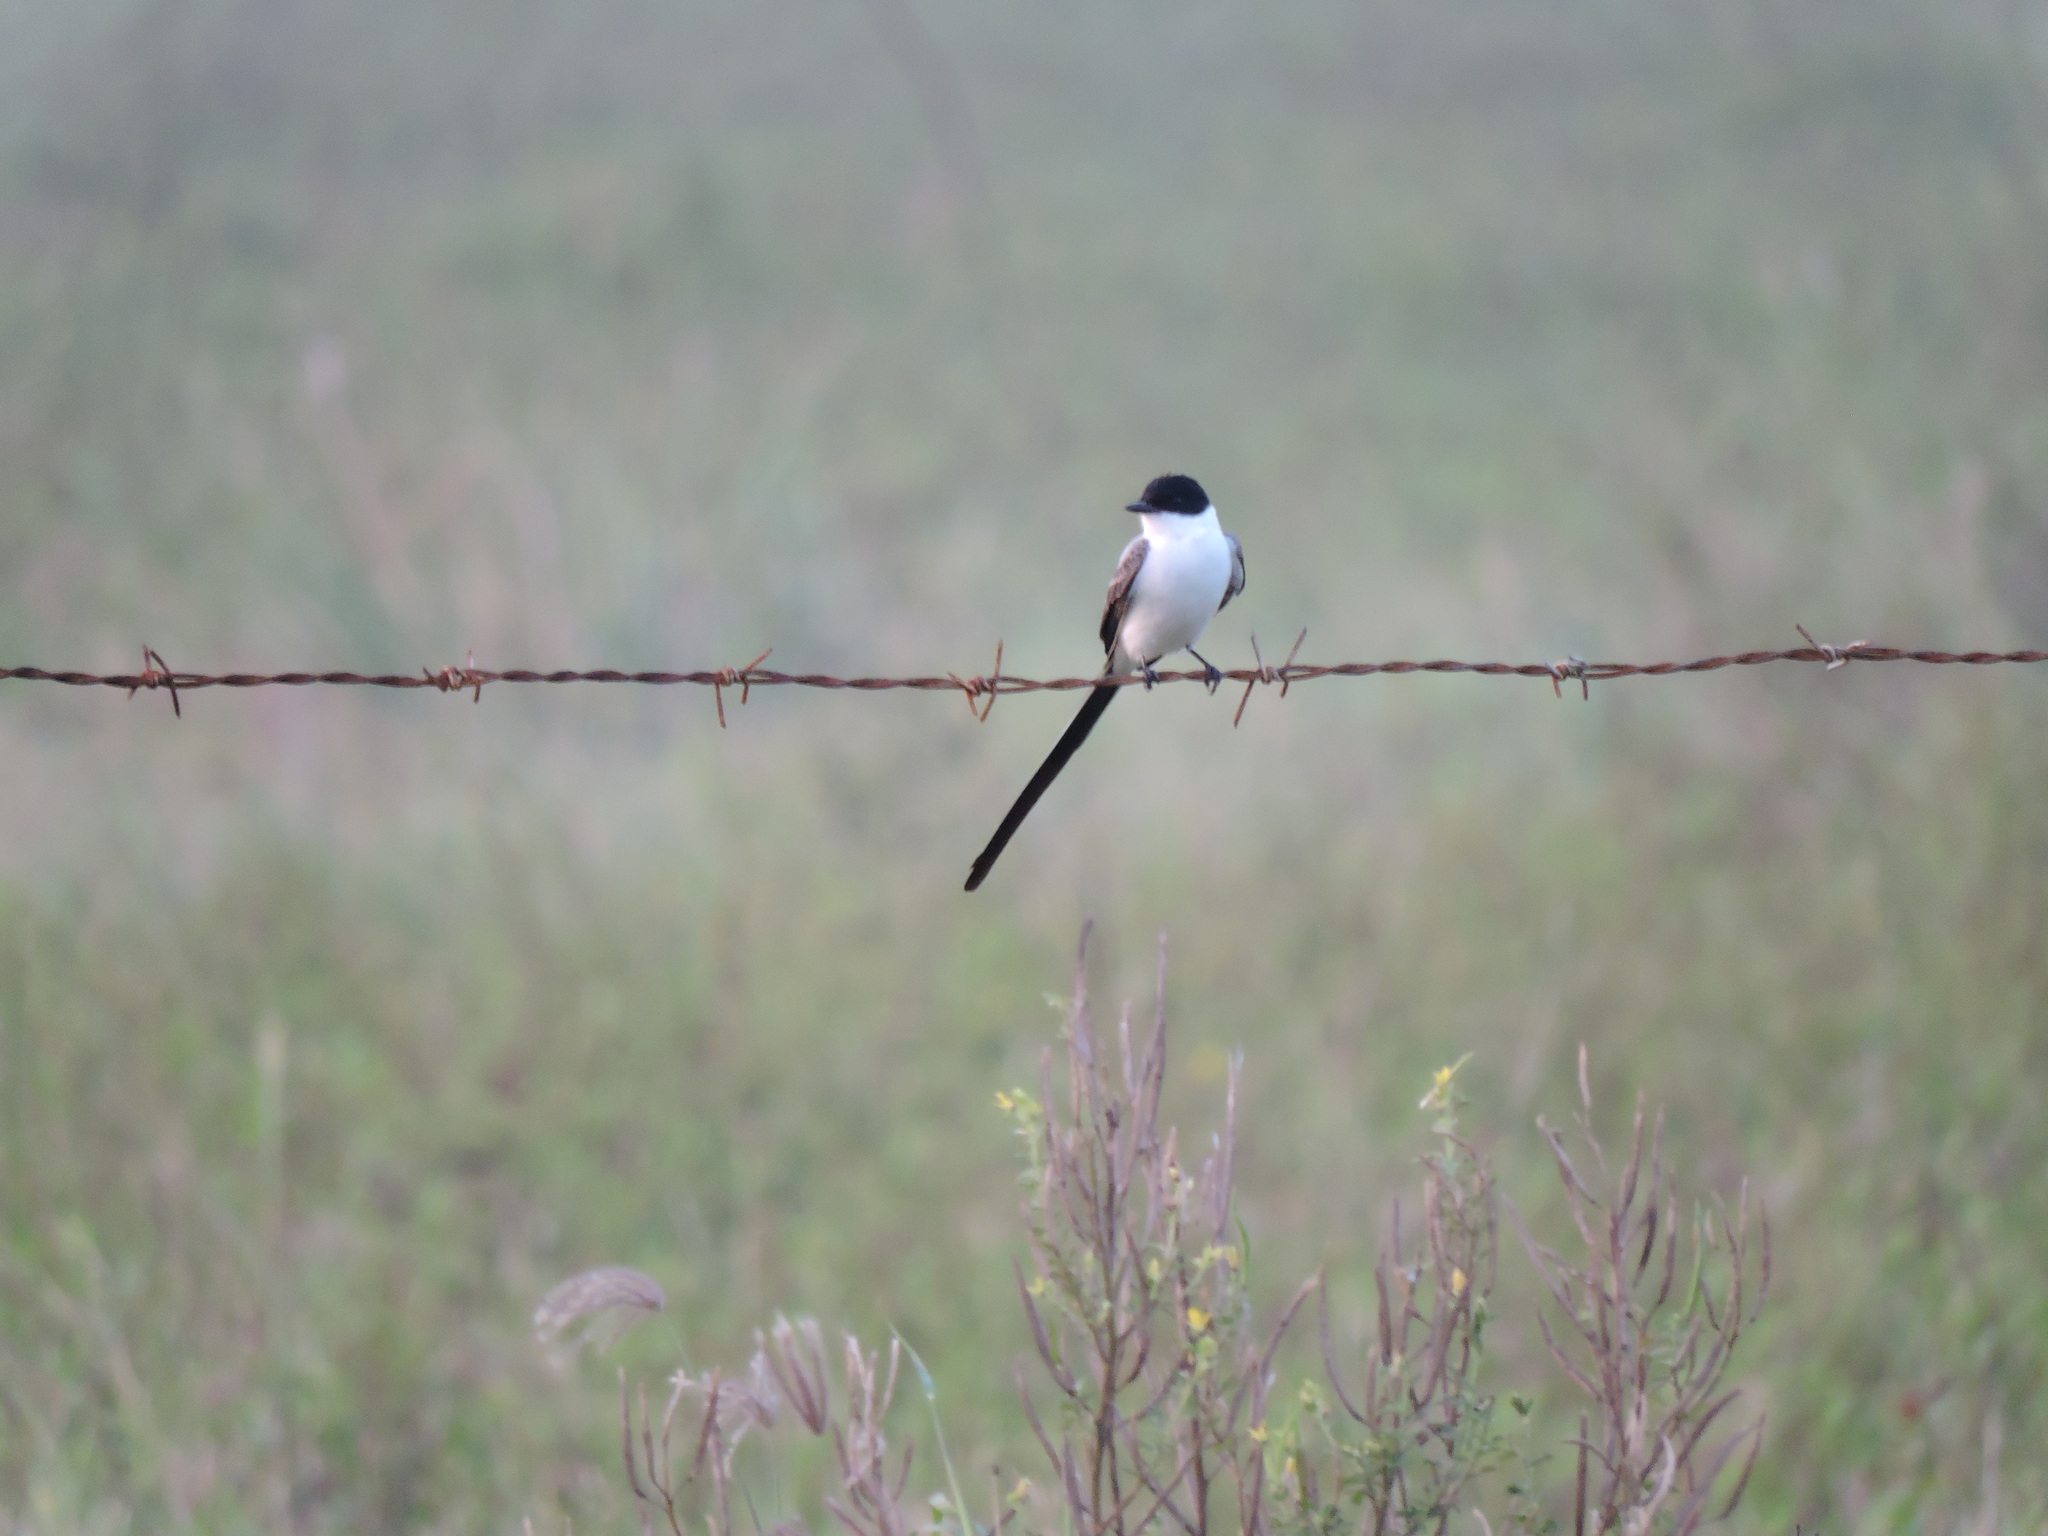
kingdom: Animalia
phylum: Chordata
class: Aves
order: Passeriformes
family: Tyrannidae
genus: Tyrannus
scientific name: Tyrannus savana
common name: Fork-tailed flycatcher
